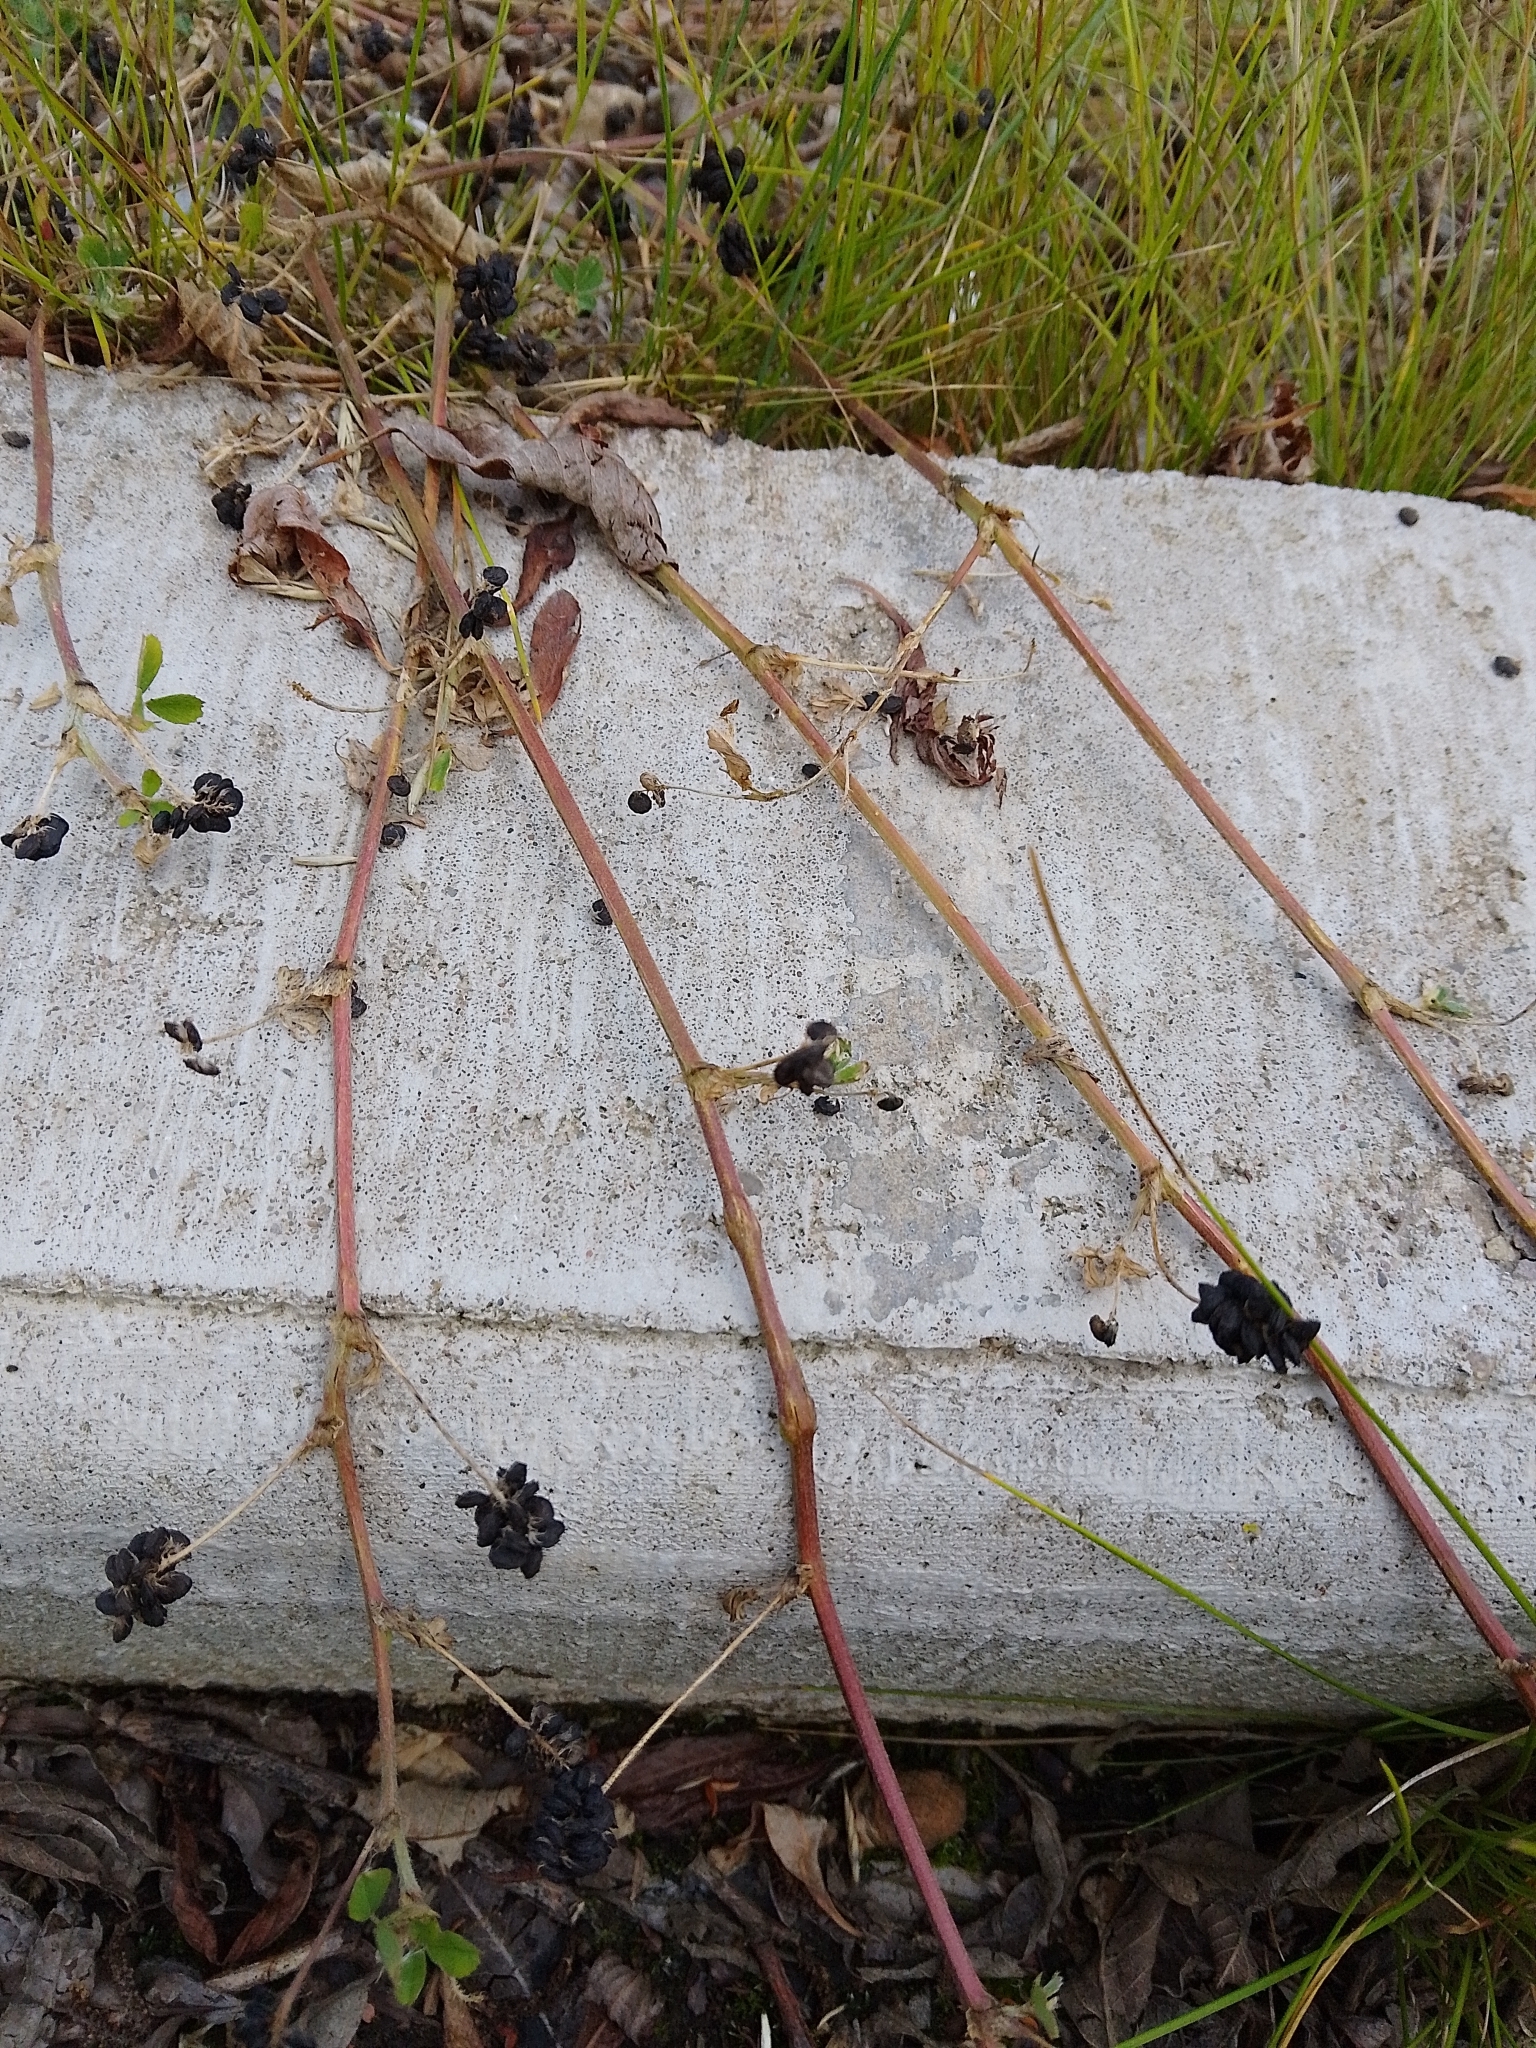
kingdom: Plantae
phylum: Tracheophyta
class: Magnoliopsida
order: Fabales
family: Fabaceae
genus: Medicago
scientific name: Medicago lupulina
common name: Black medick
